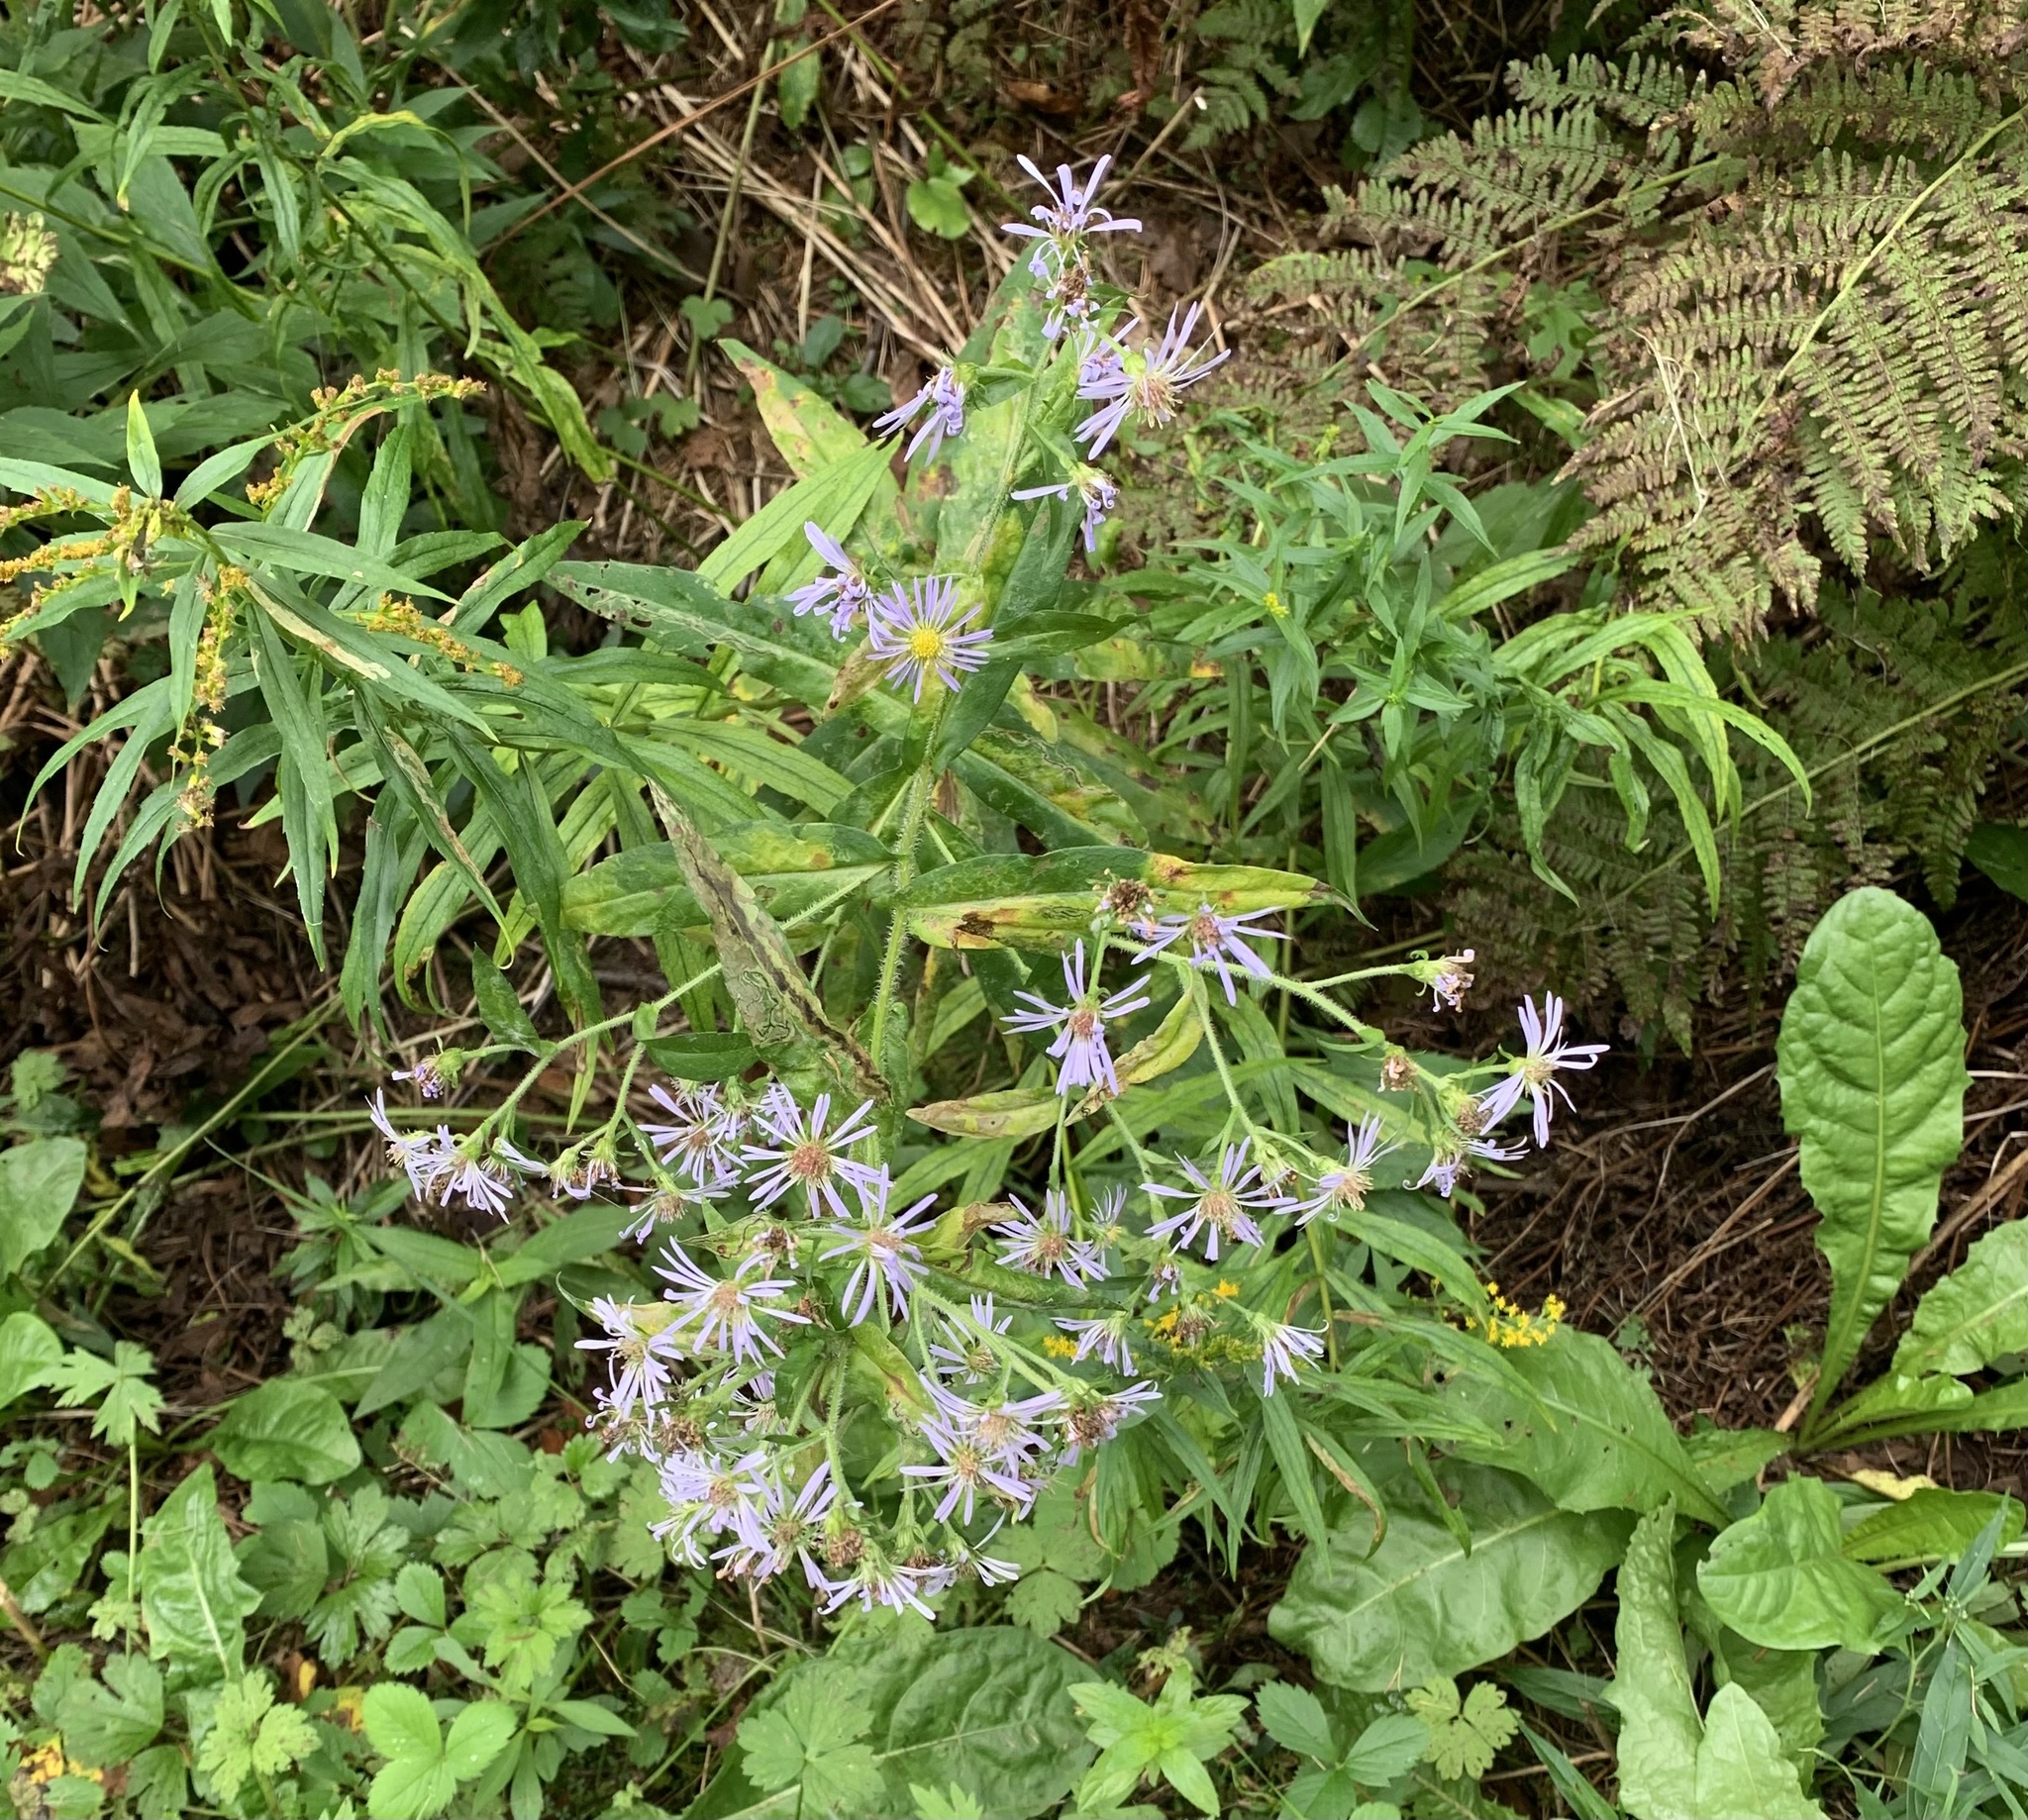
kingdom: Plantae
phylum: Tracheophyta
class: Magnoliopsida
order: Asterales
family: Asteraceae
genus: Symphyotrichum
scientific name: Symphyotrichum puniceum
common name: Bog aster
